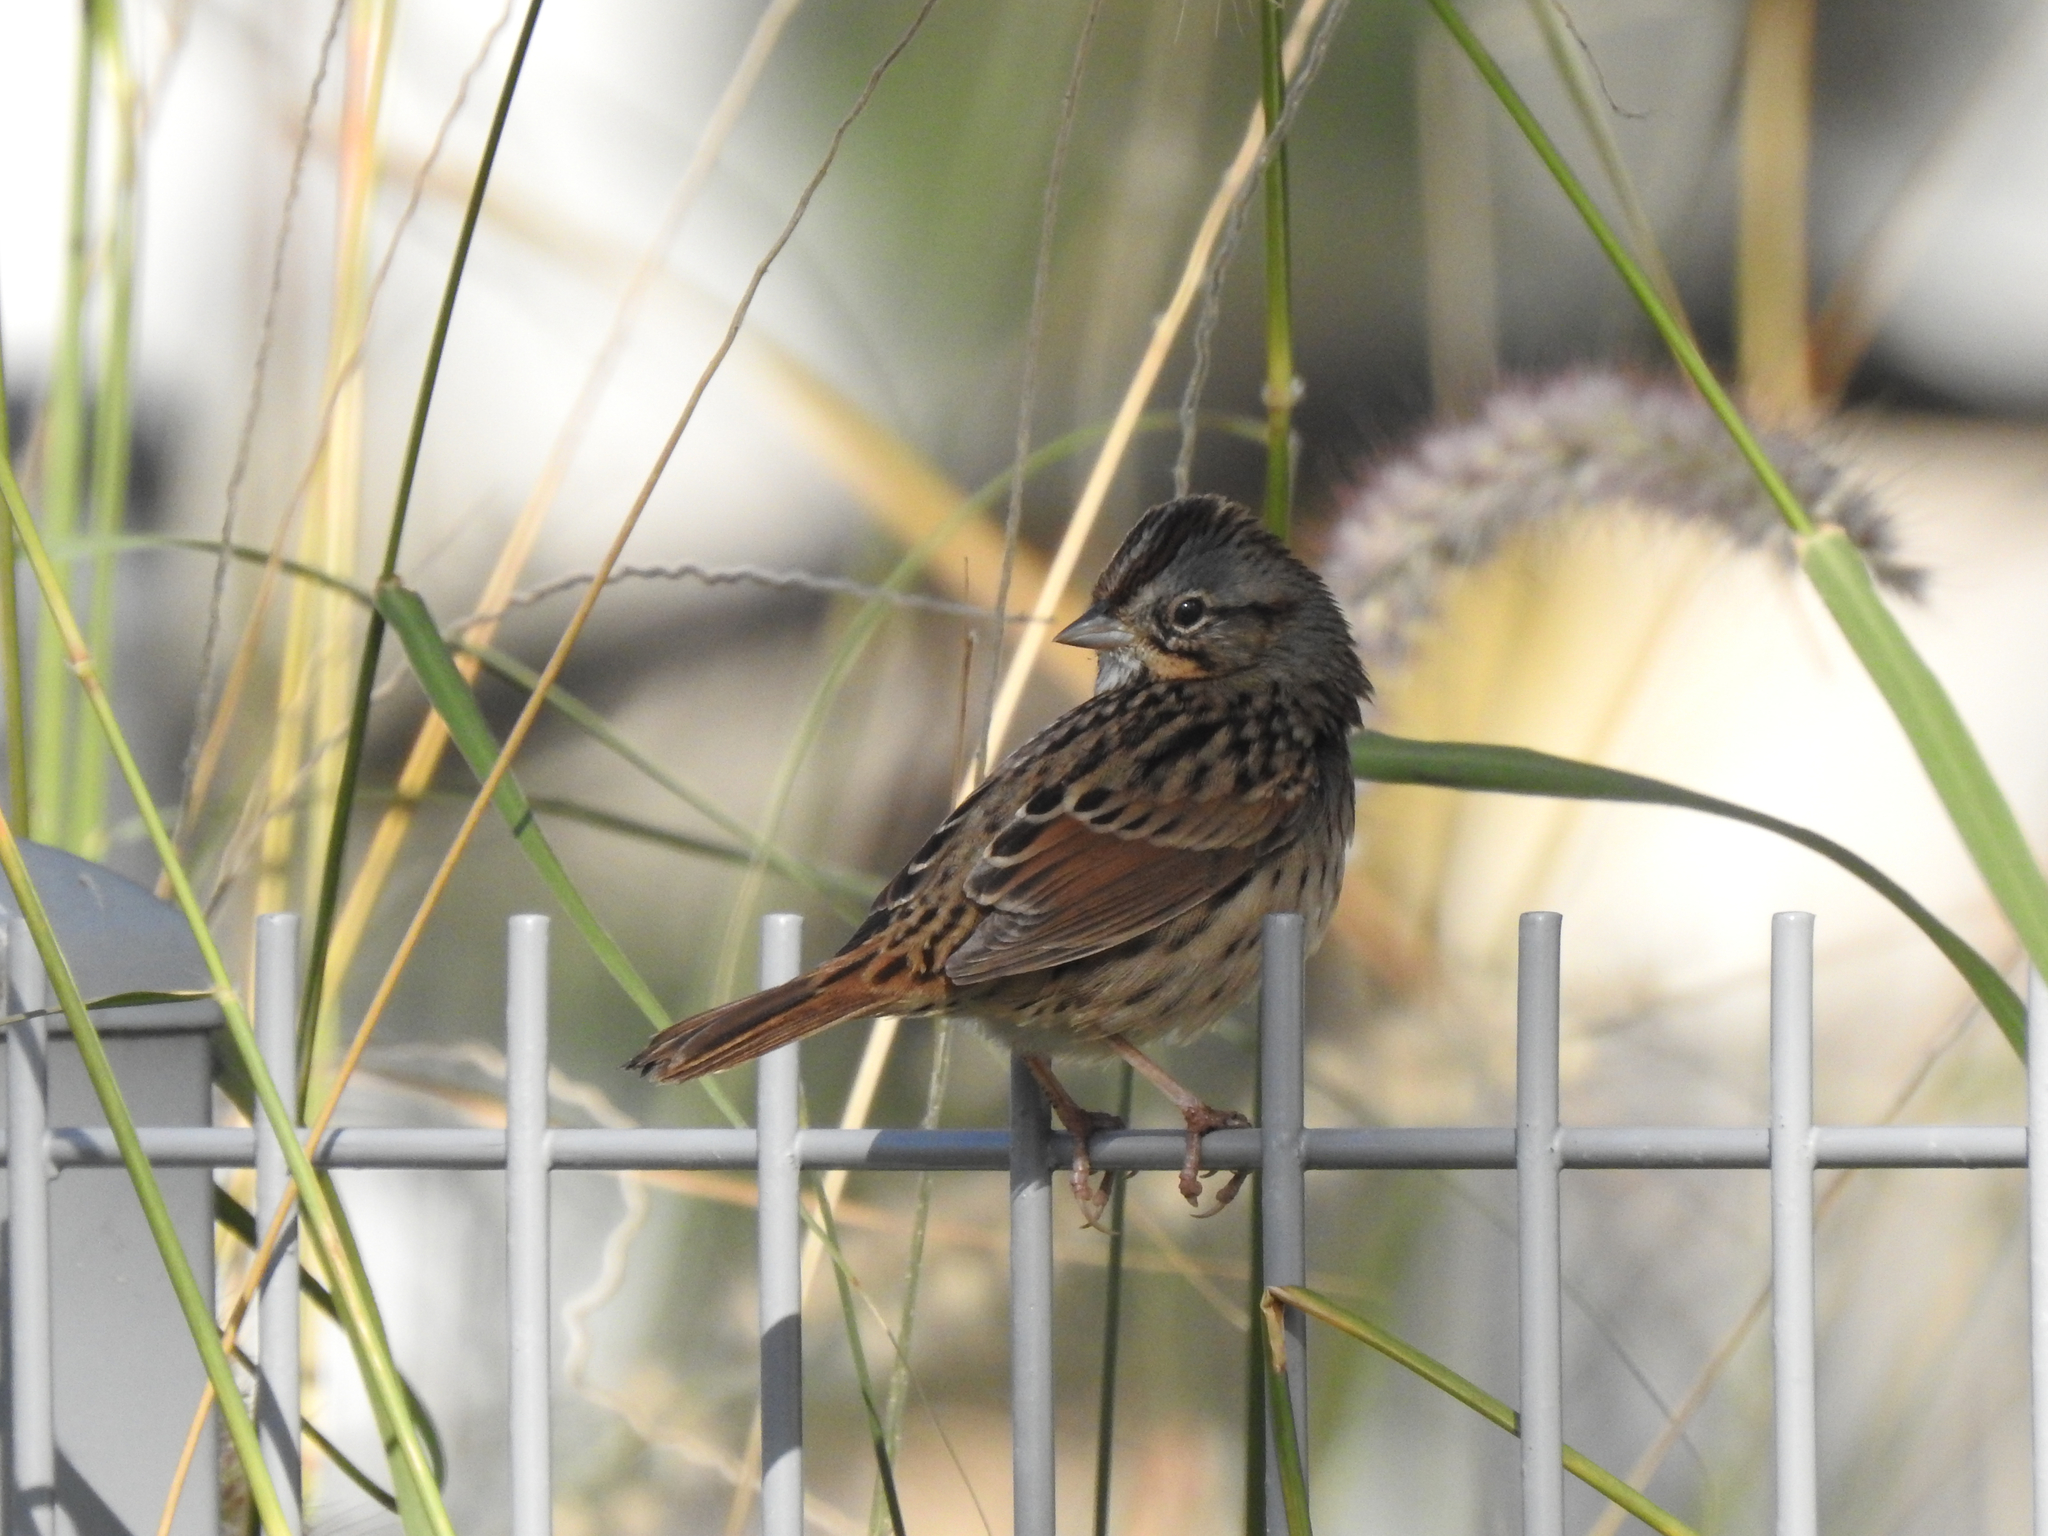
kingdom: Animalia
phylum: Chordata
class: Aves
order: Passeriformes
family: Passerellidae
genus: Melospiza
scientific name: Melospiza lincolnii
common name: Lincoln's sparrow
